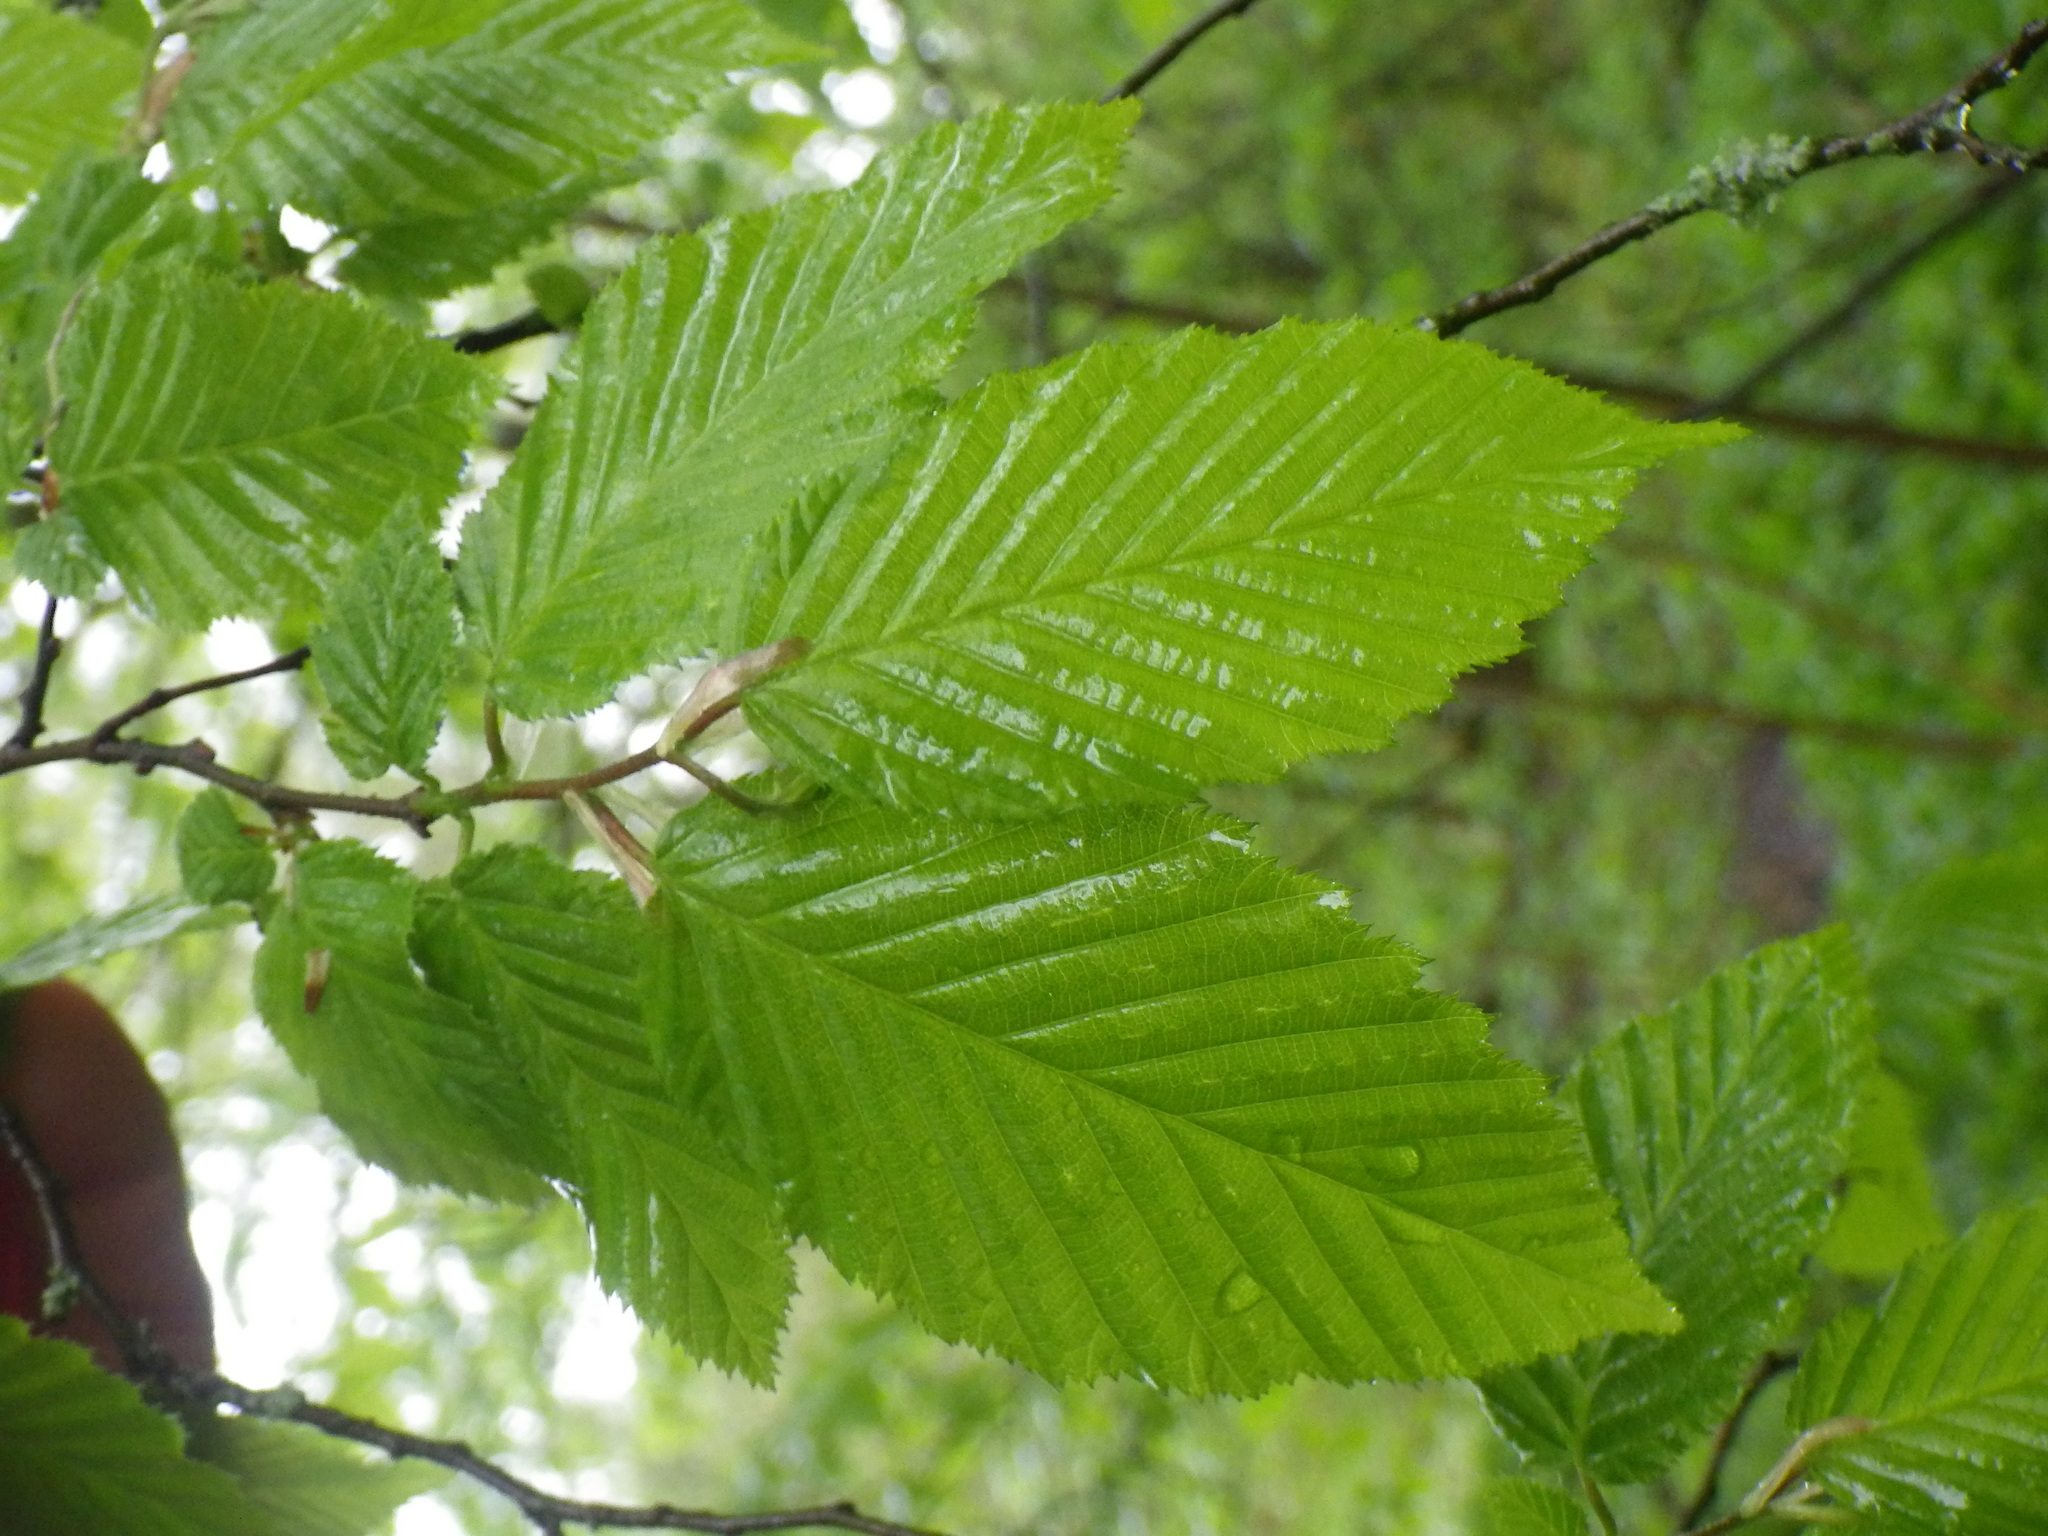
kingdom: Plantae
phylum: Tracheophyta
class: Magnoliopsida
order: Fagales
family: Betulaceae
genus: Carpinus
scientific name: Carpinus betulus
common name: Hornbeam
